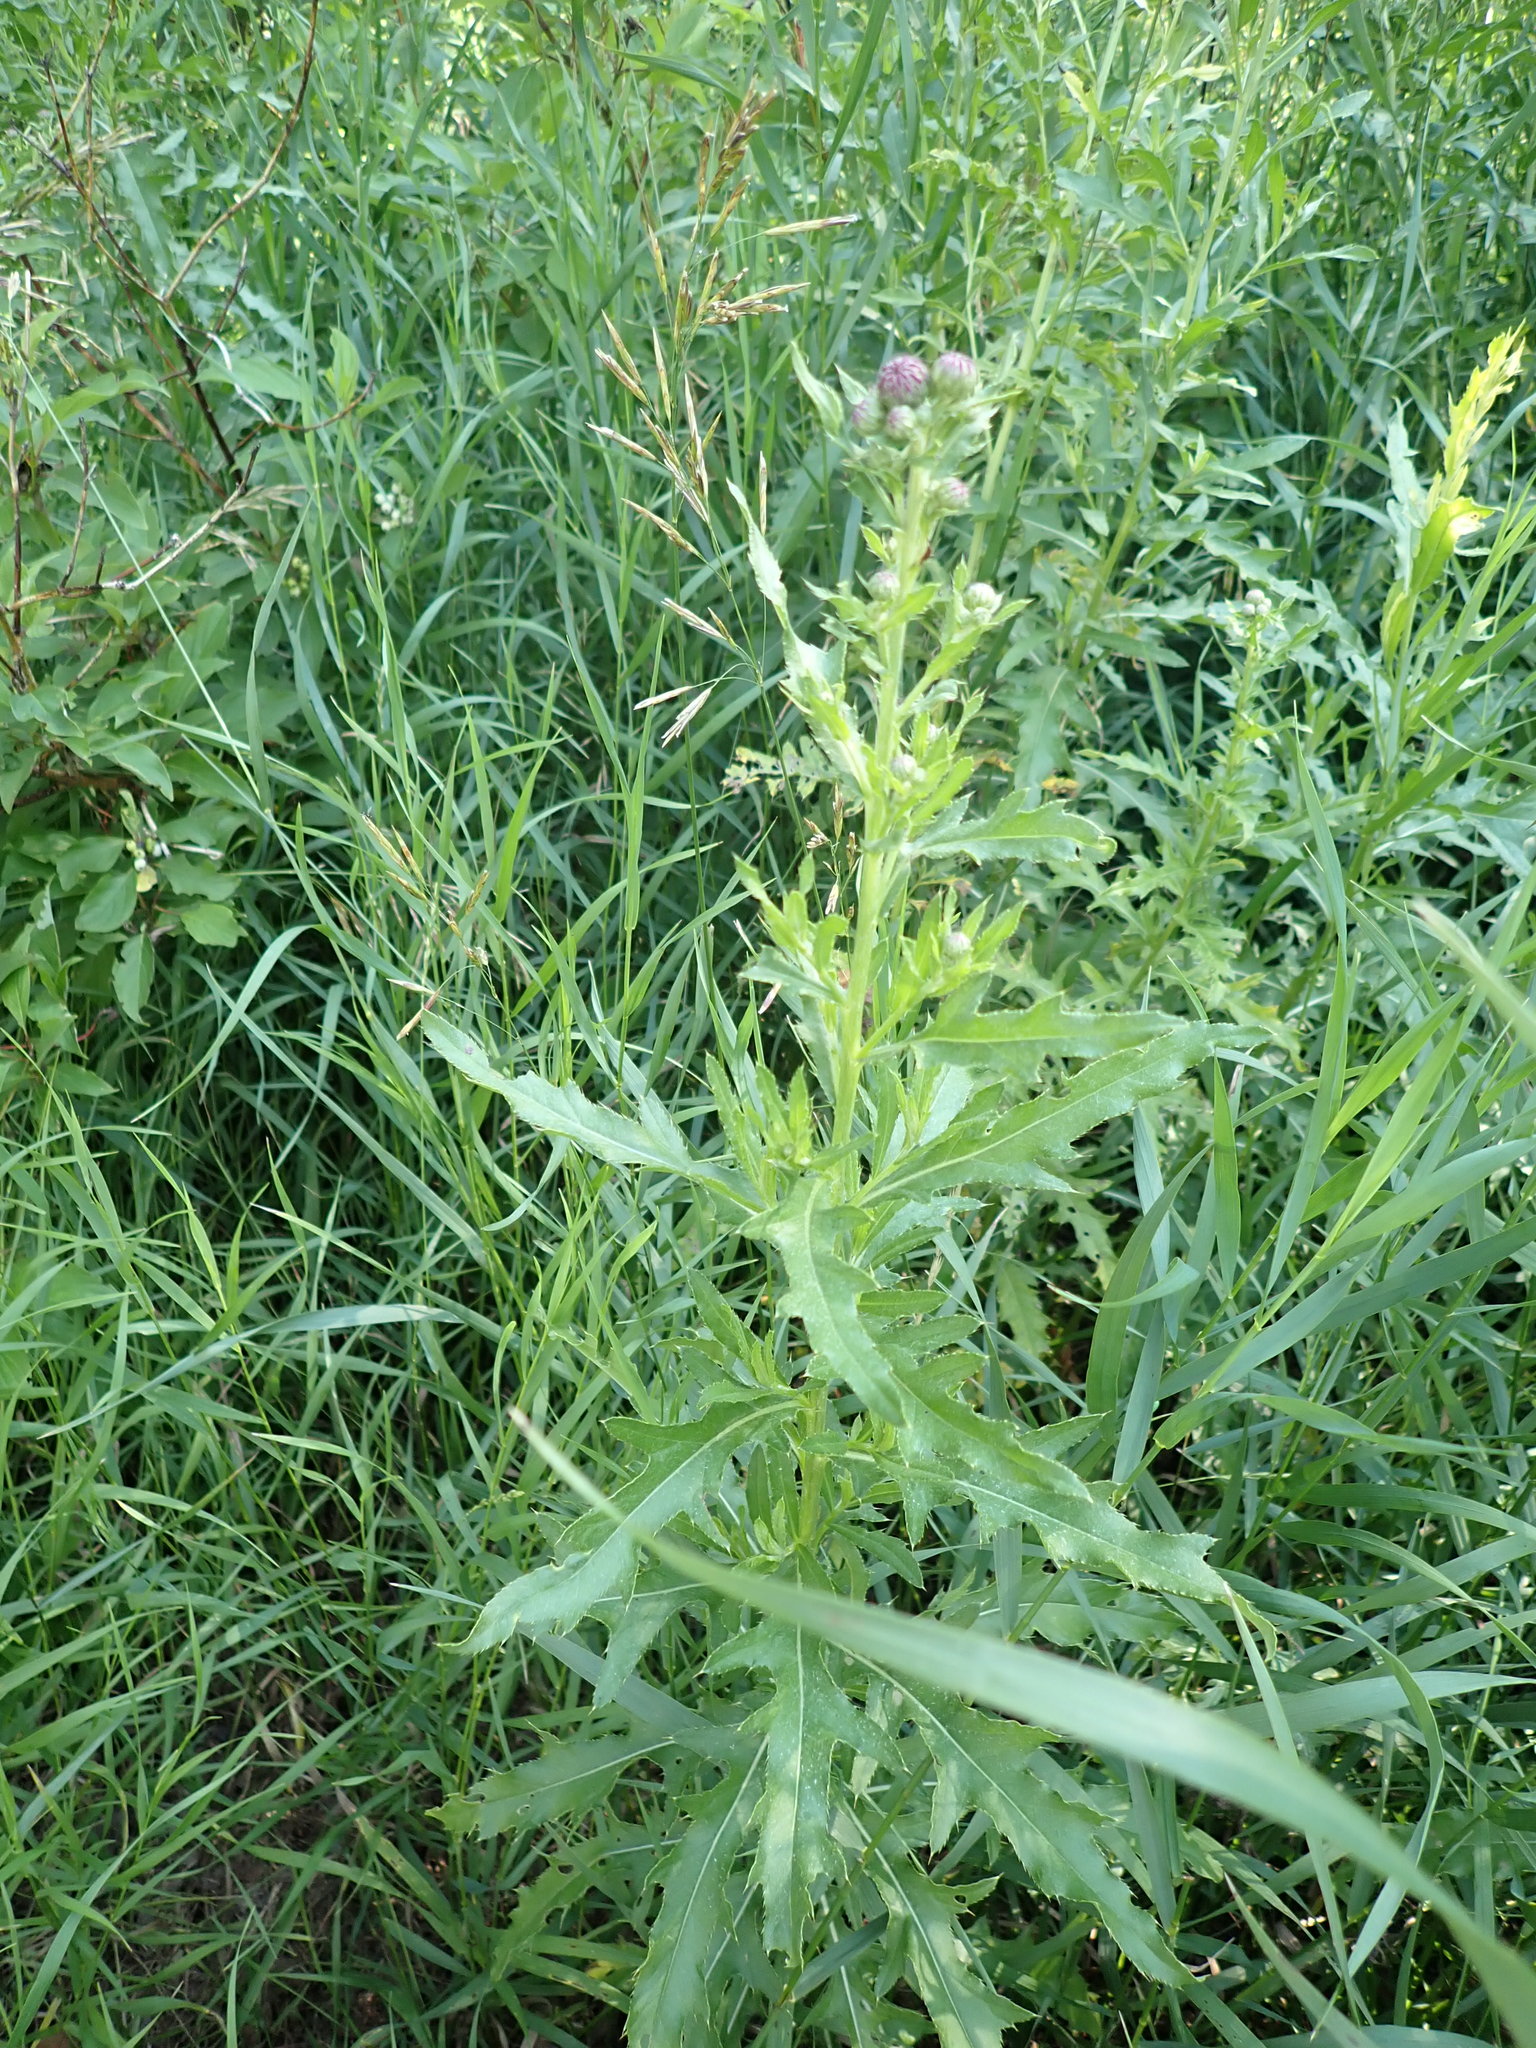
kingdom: Plantae
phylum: Tracheophyta
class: Magnoliopsida
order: Asterales
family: Asteraceae
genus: Cirsium
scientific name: Cirsium arvense
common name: Creeping thistle
